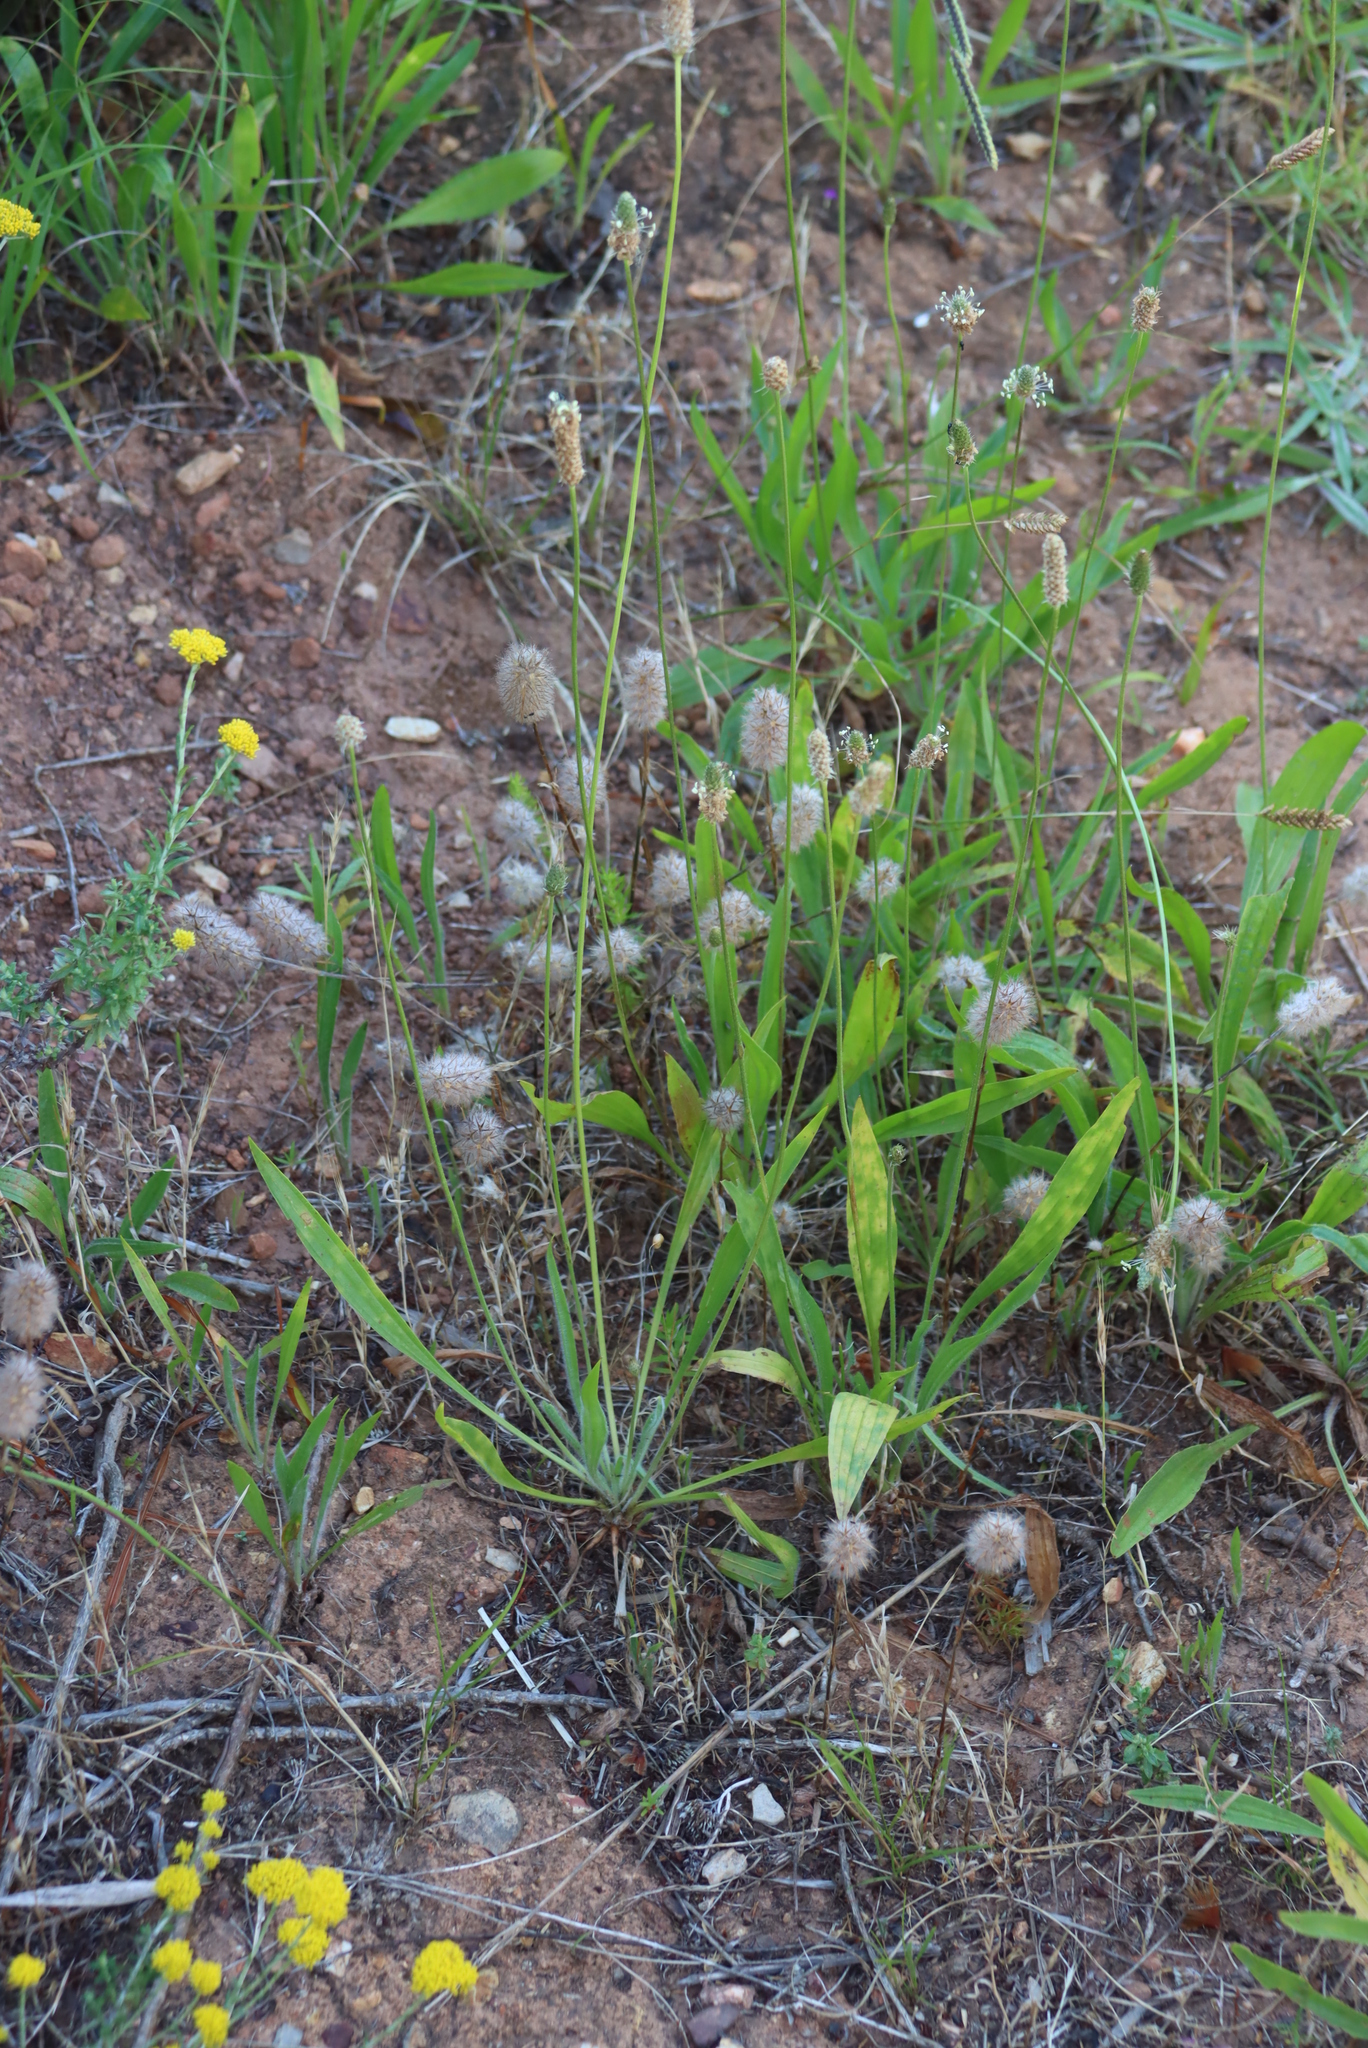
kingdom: Plantae
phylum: Tracheophyta
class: Magnoliopsida
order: Lamiales
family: Plantaginaceae
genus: Plantago
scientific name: Plantago lanceolata
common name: Ribwort plantain
